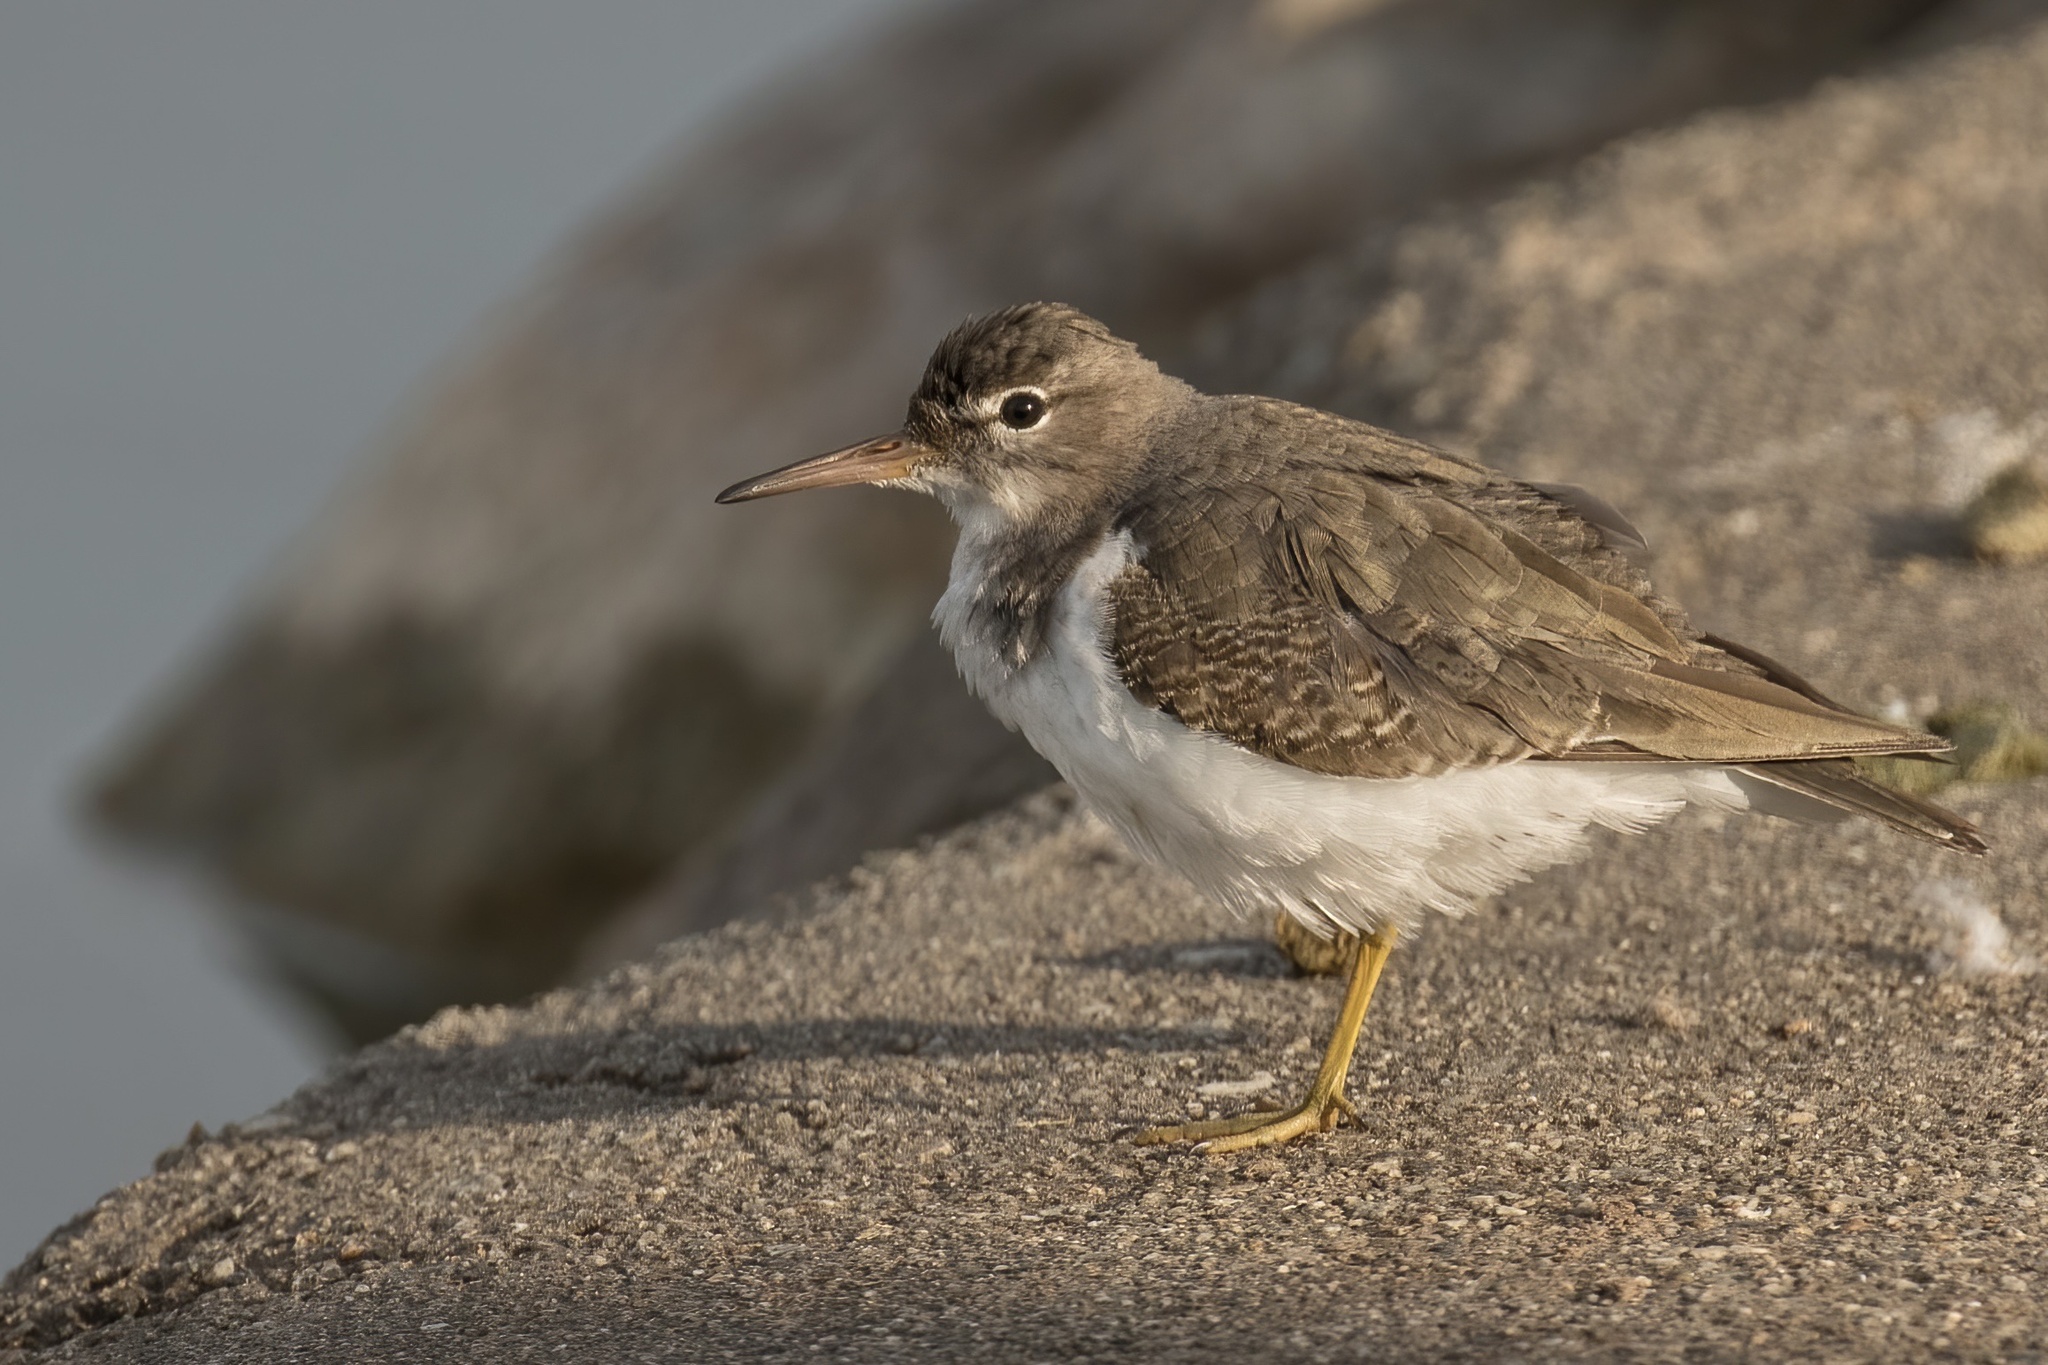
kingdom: Animalia
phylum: Chordata
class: Aves
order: Charadriiformes
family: Scolopacidae
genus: Actitis
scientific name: Actitis macularius
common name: Spotted sandpiper
